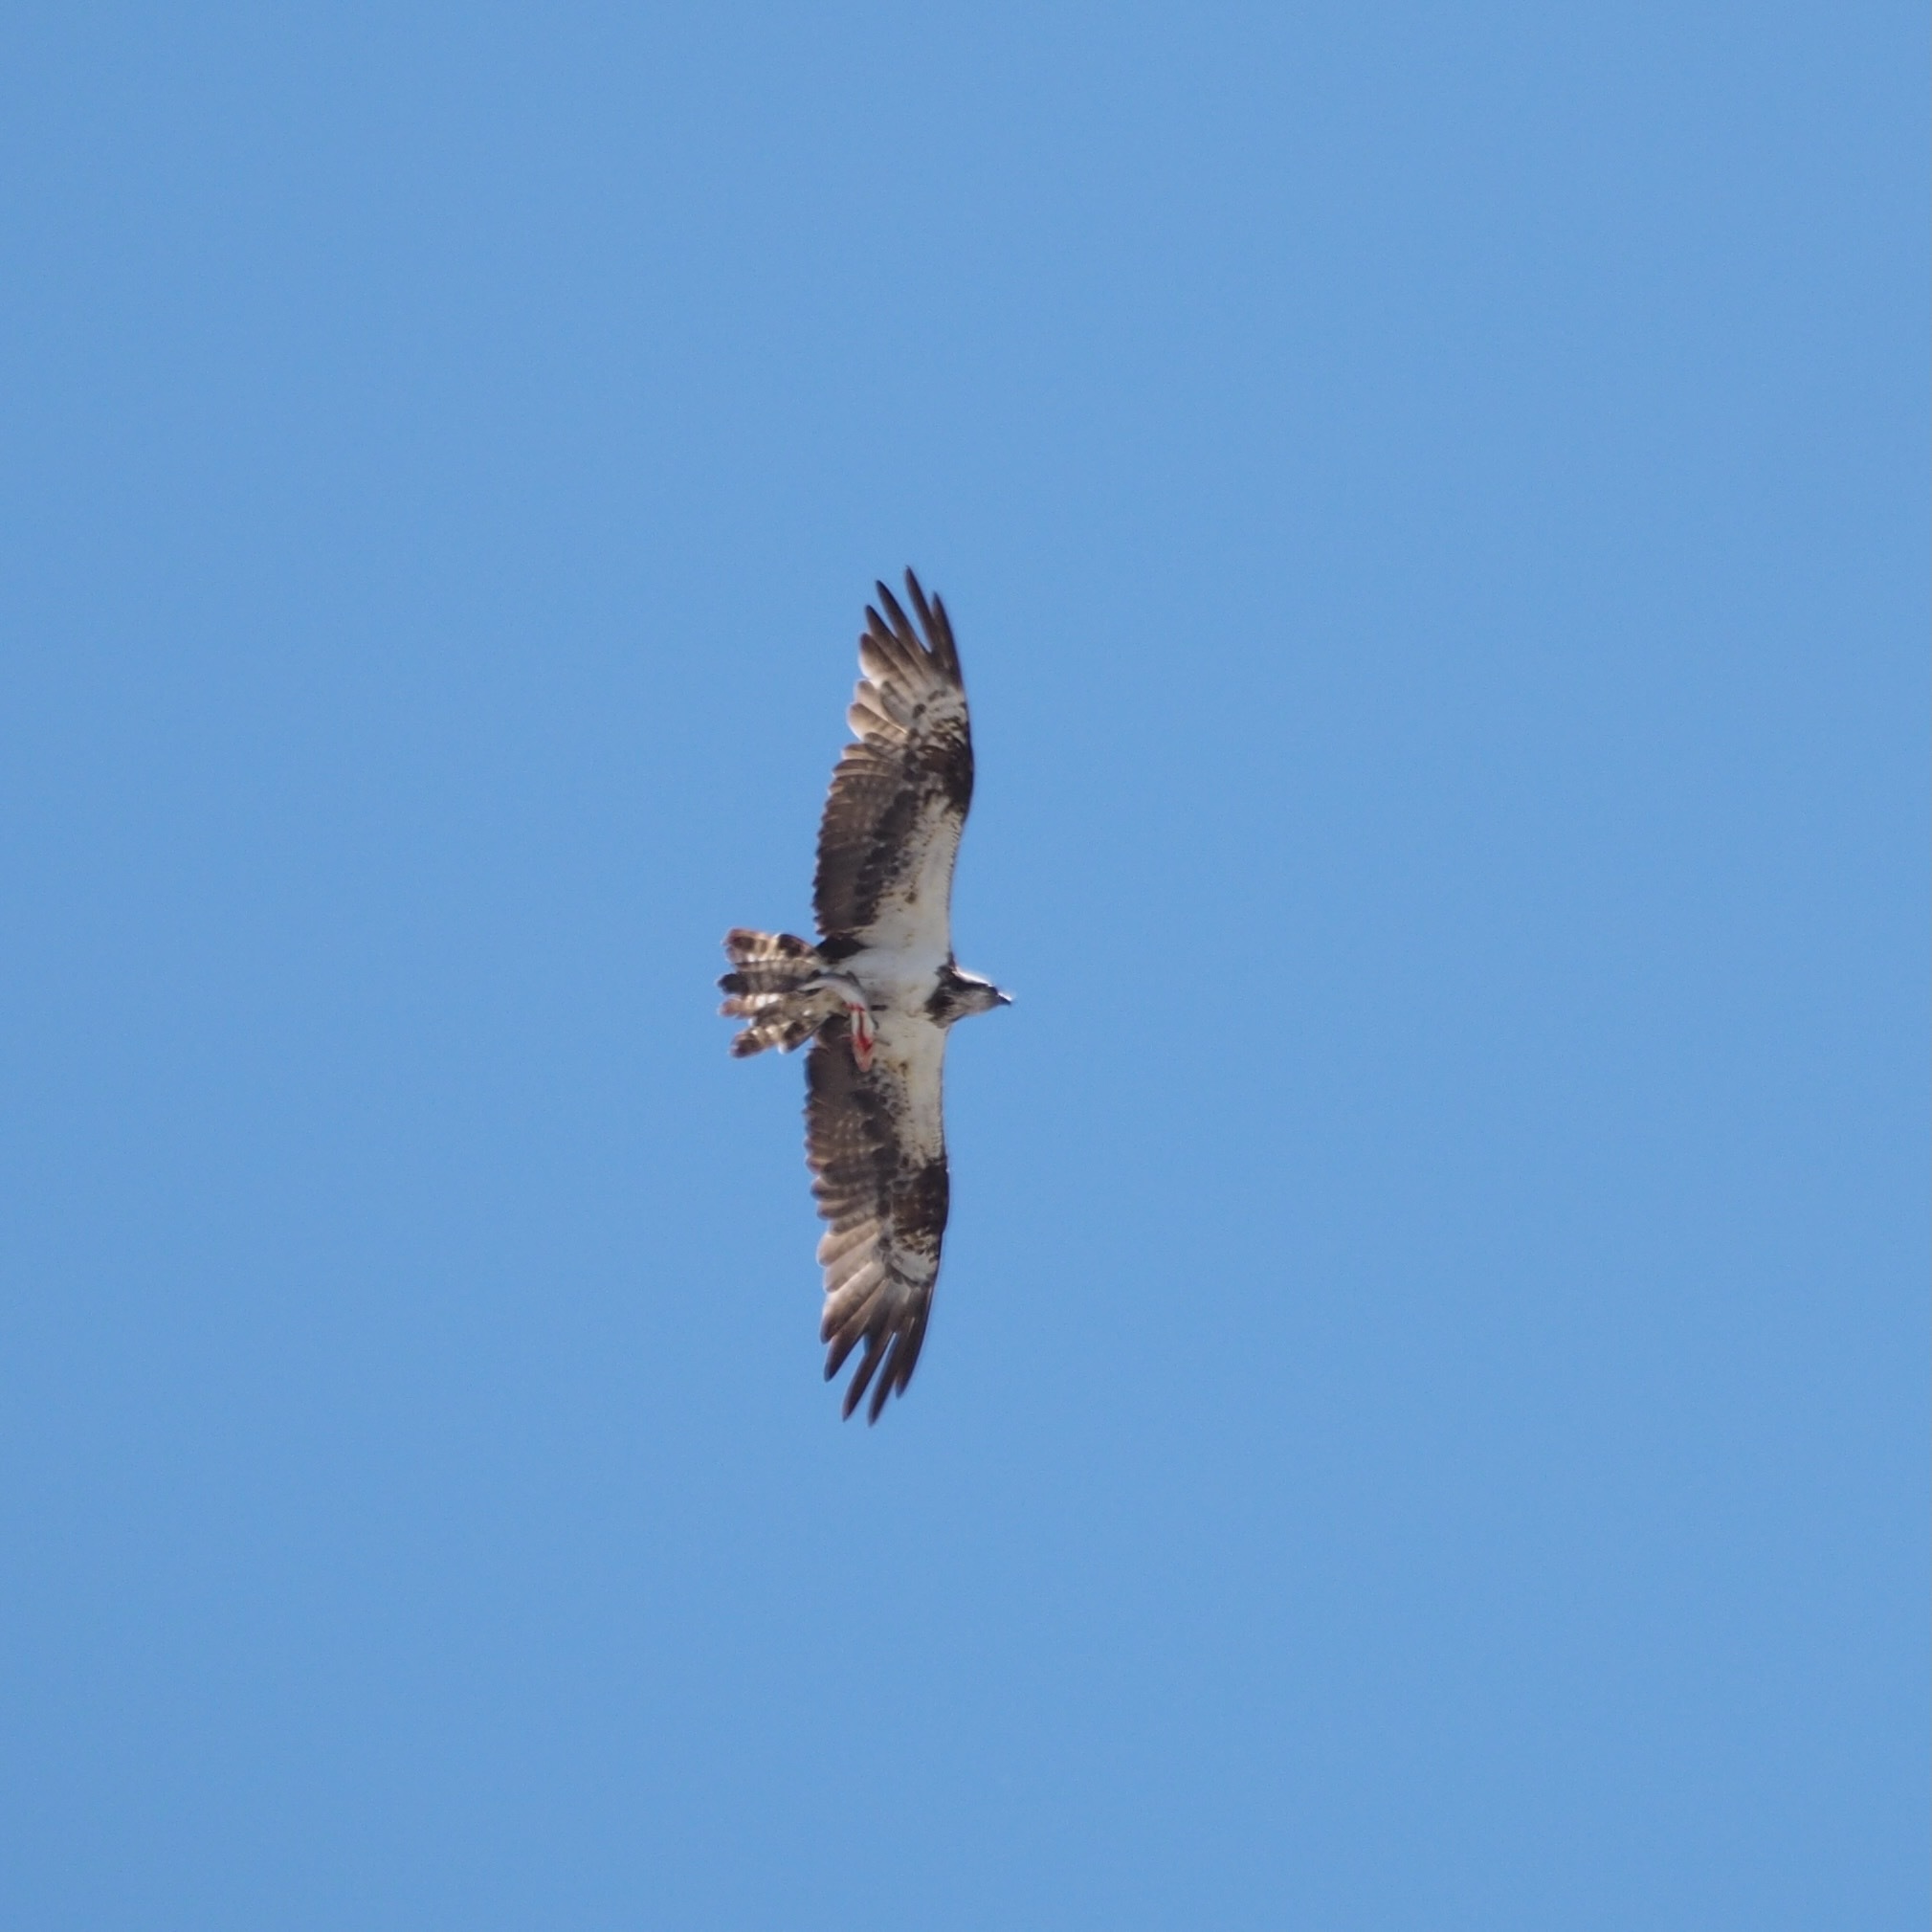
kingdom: Animalia
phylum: Chordata
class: Aves
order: Accipitriformes
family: Pandionidae
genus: Pandion
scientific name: Pandion haliaetus
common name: Osprey
